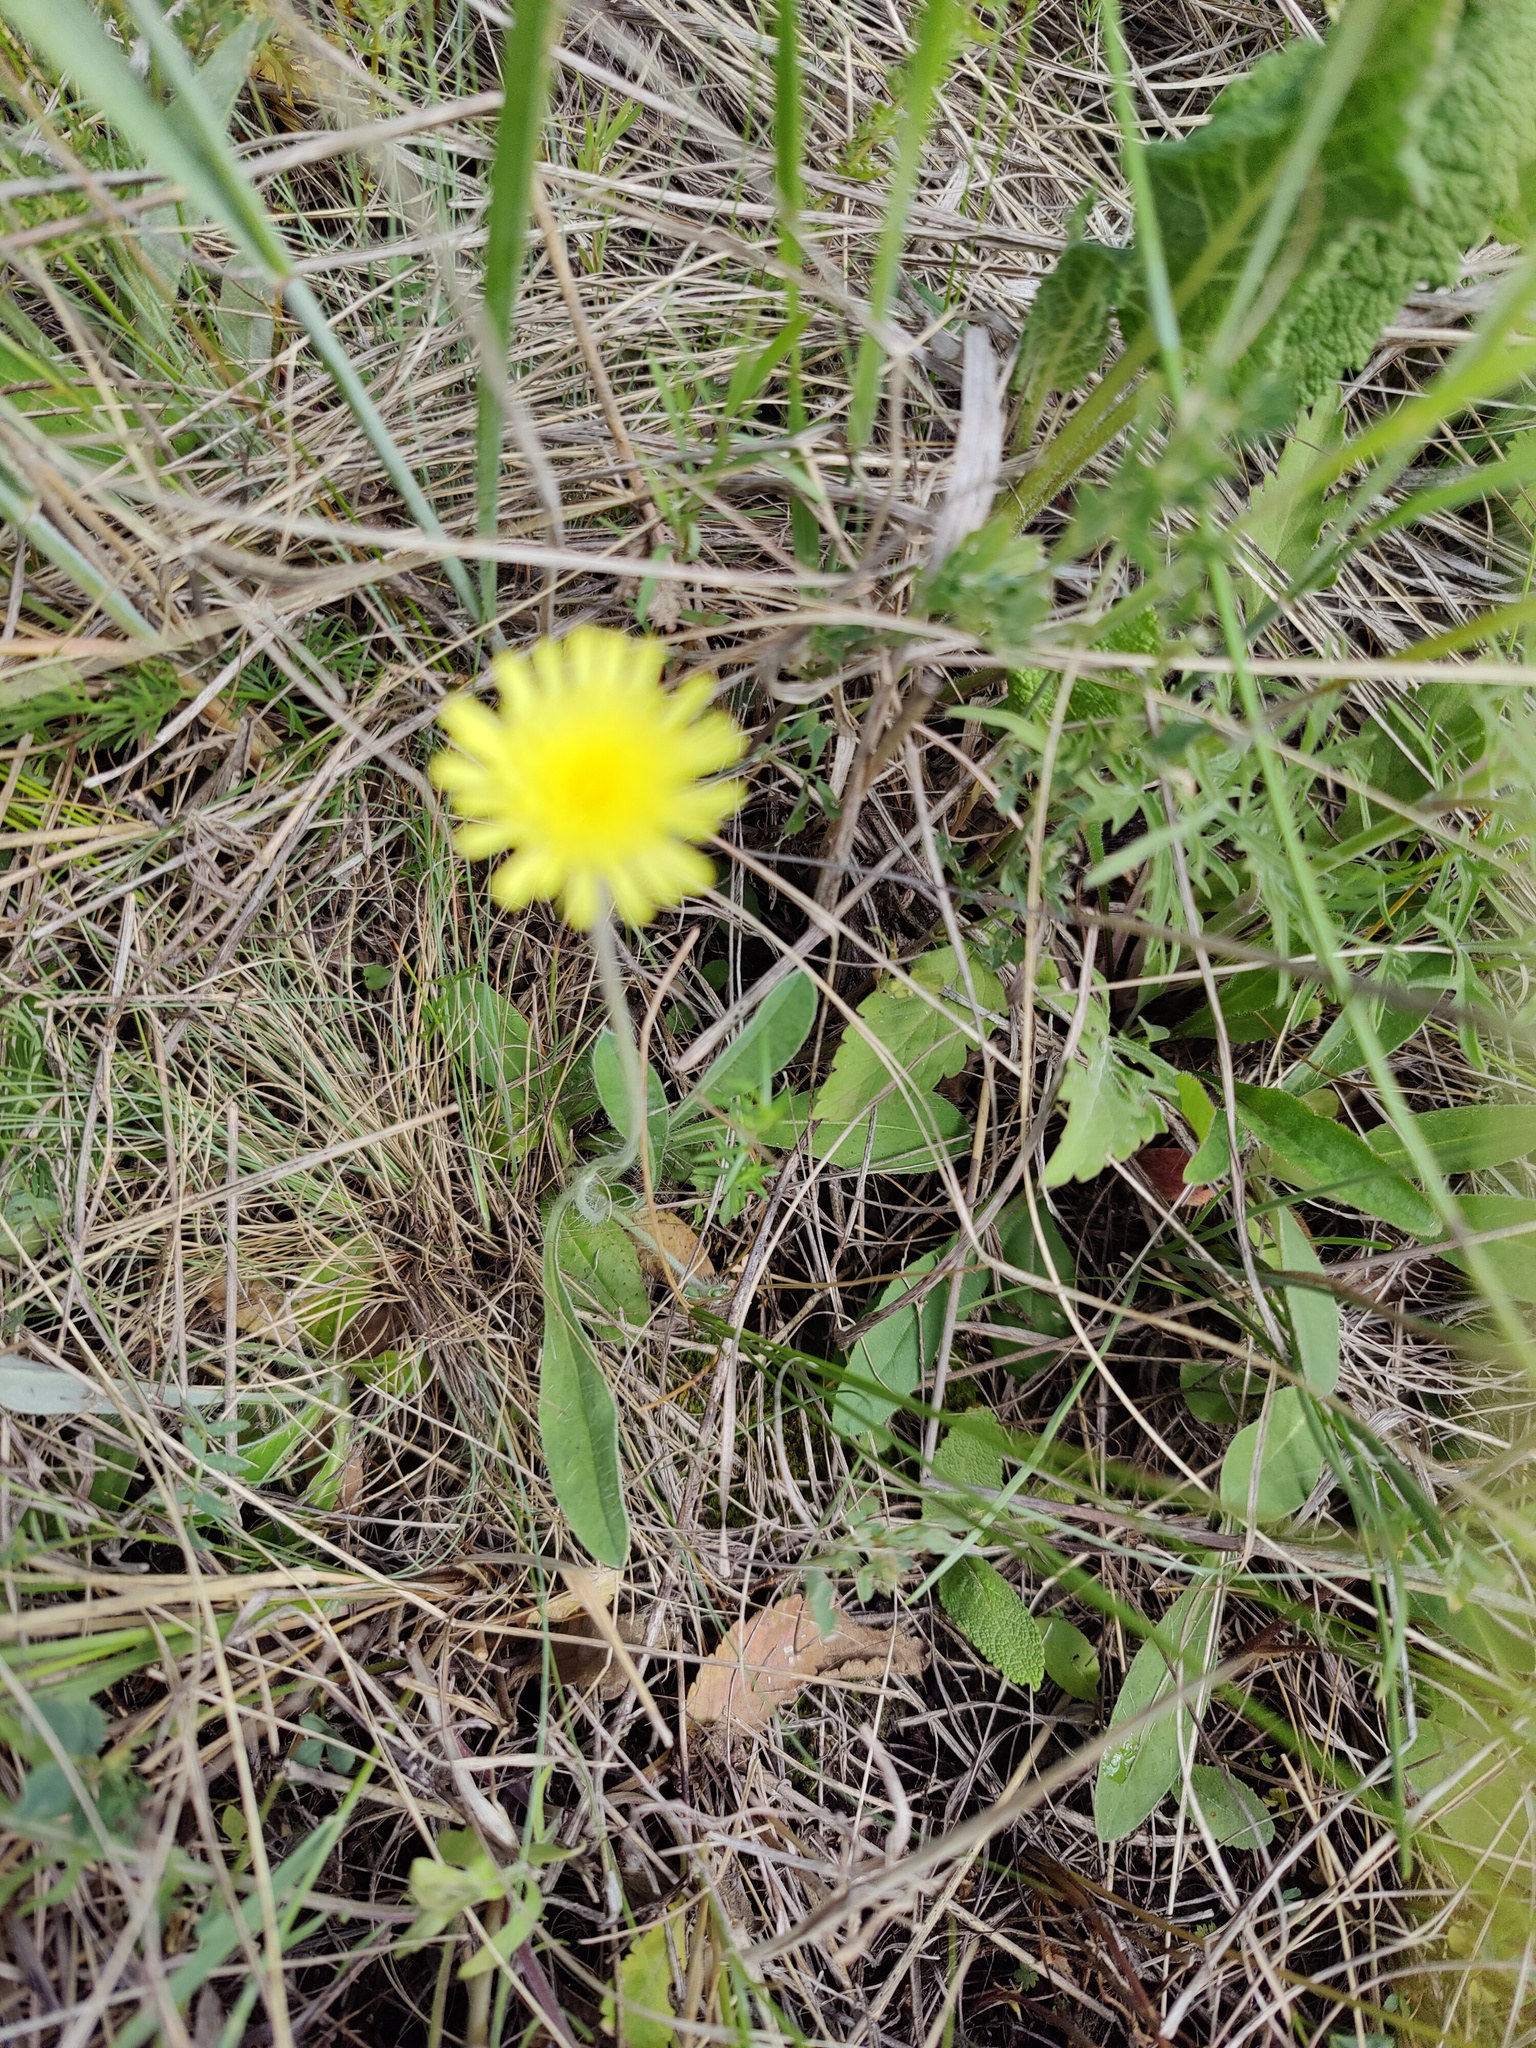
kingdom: Plantae
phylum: Tracheophyta
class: Magnoliopsida
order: Asterales
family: Asteraceae
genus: Pilosella
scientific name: Pilosella officinarum
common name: Mouse-ear hawkweed
